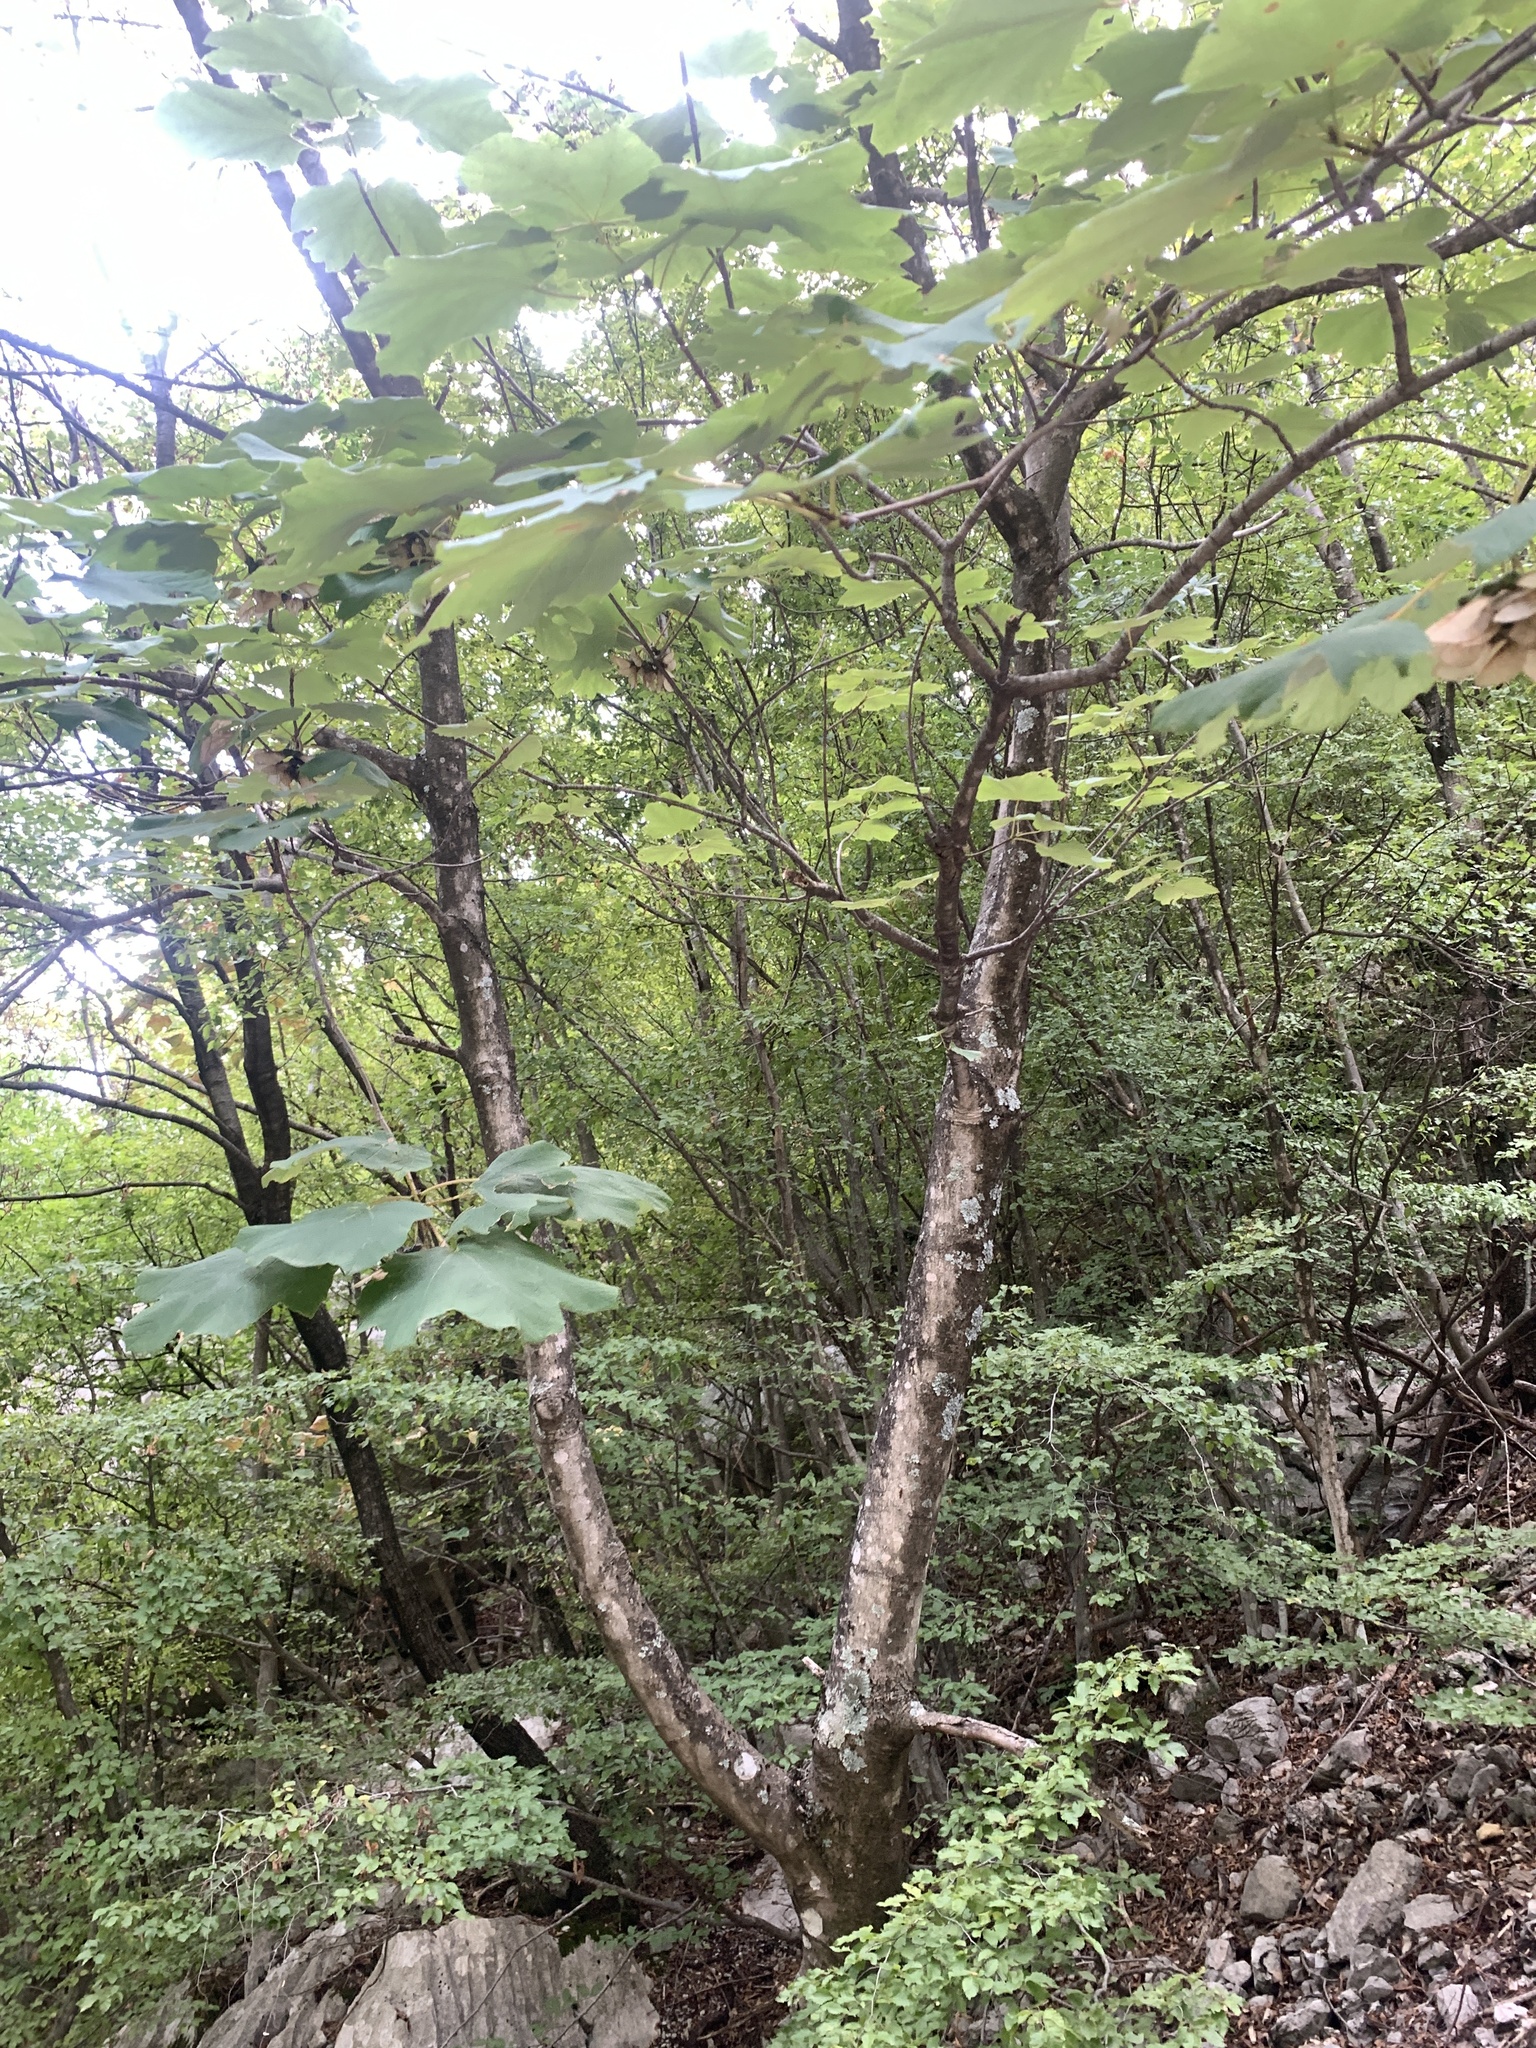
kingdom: Plantae
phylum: Tracheophyta
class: Magnoliopsida
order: Sapindales
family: Sapindaceae
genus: Acer
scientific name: Acer obtusatum
